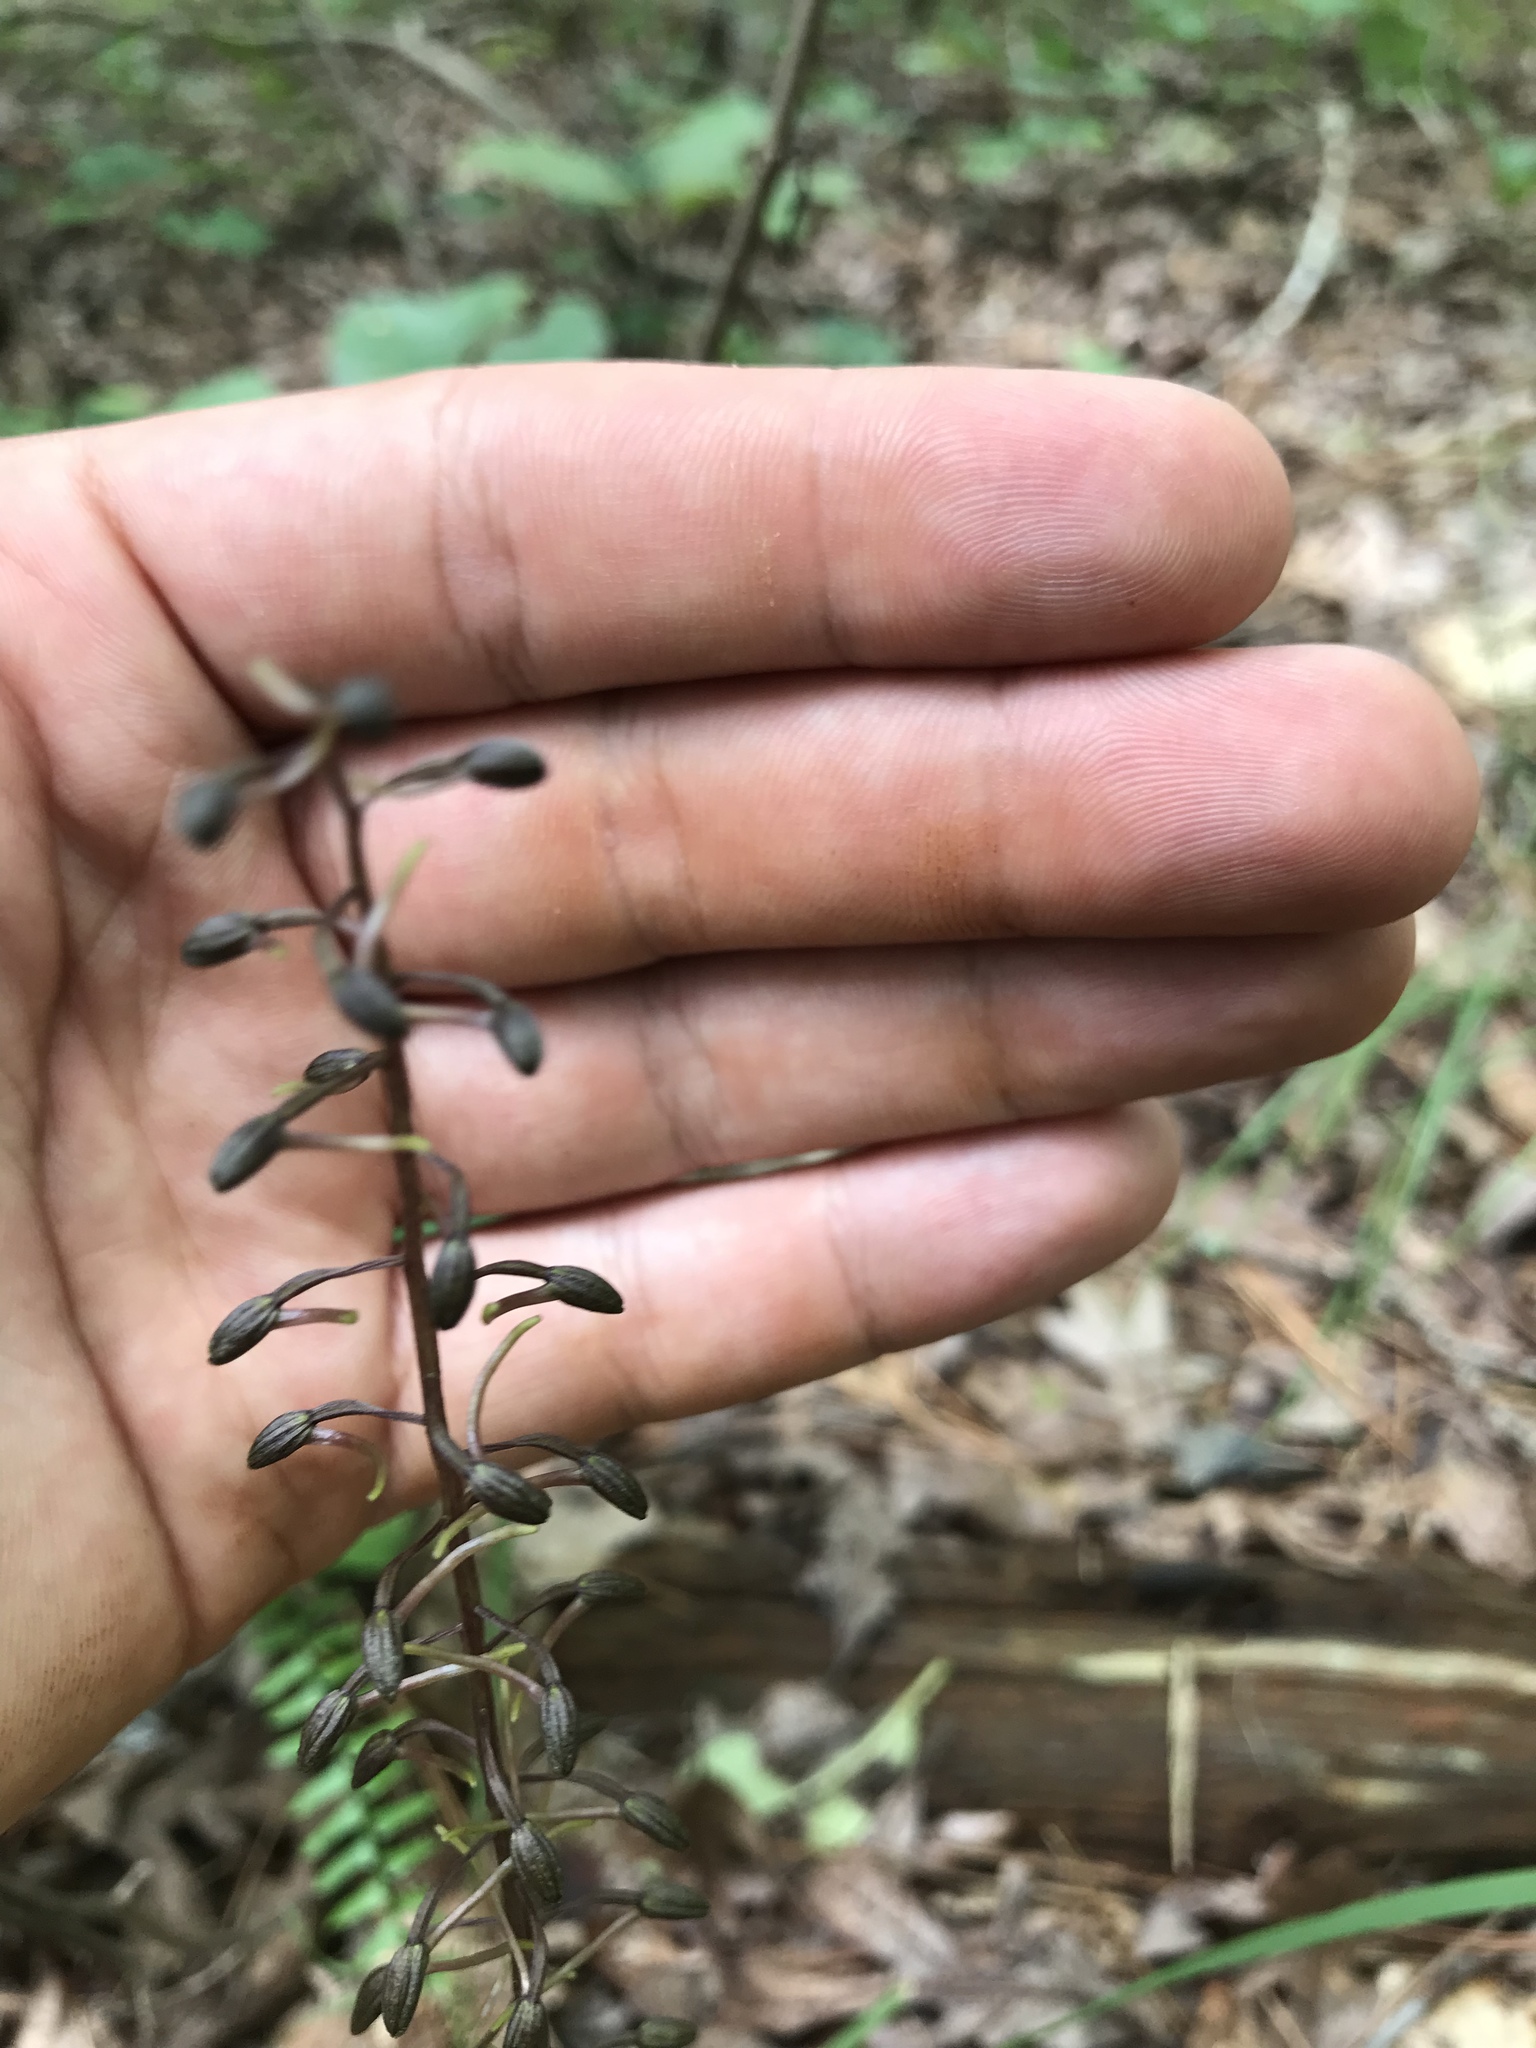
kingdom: Plantae
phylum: Tracheophyta
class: Liliopsida
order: Asparagales
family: Orchidaceae
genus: Tipularia
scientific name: Tipularia discolor
